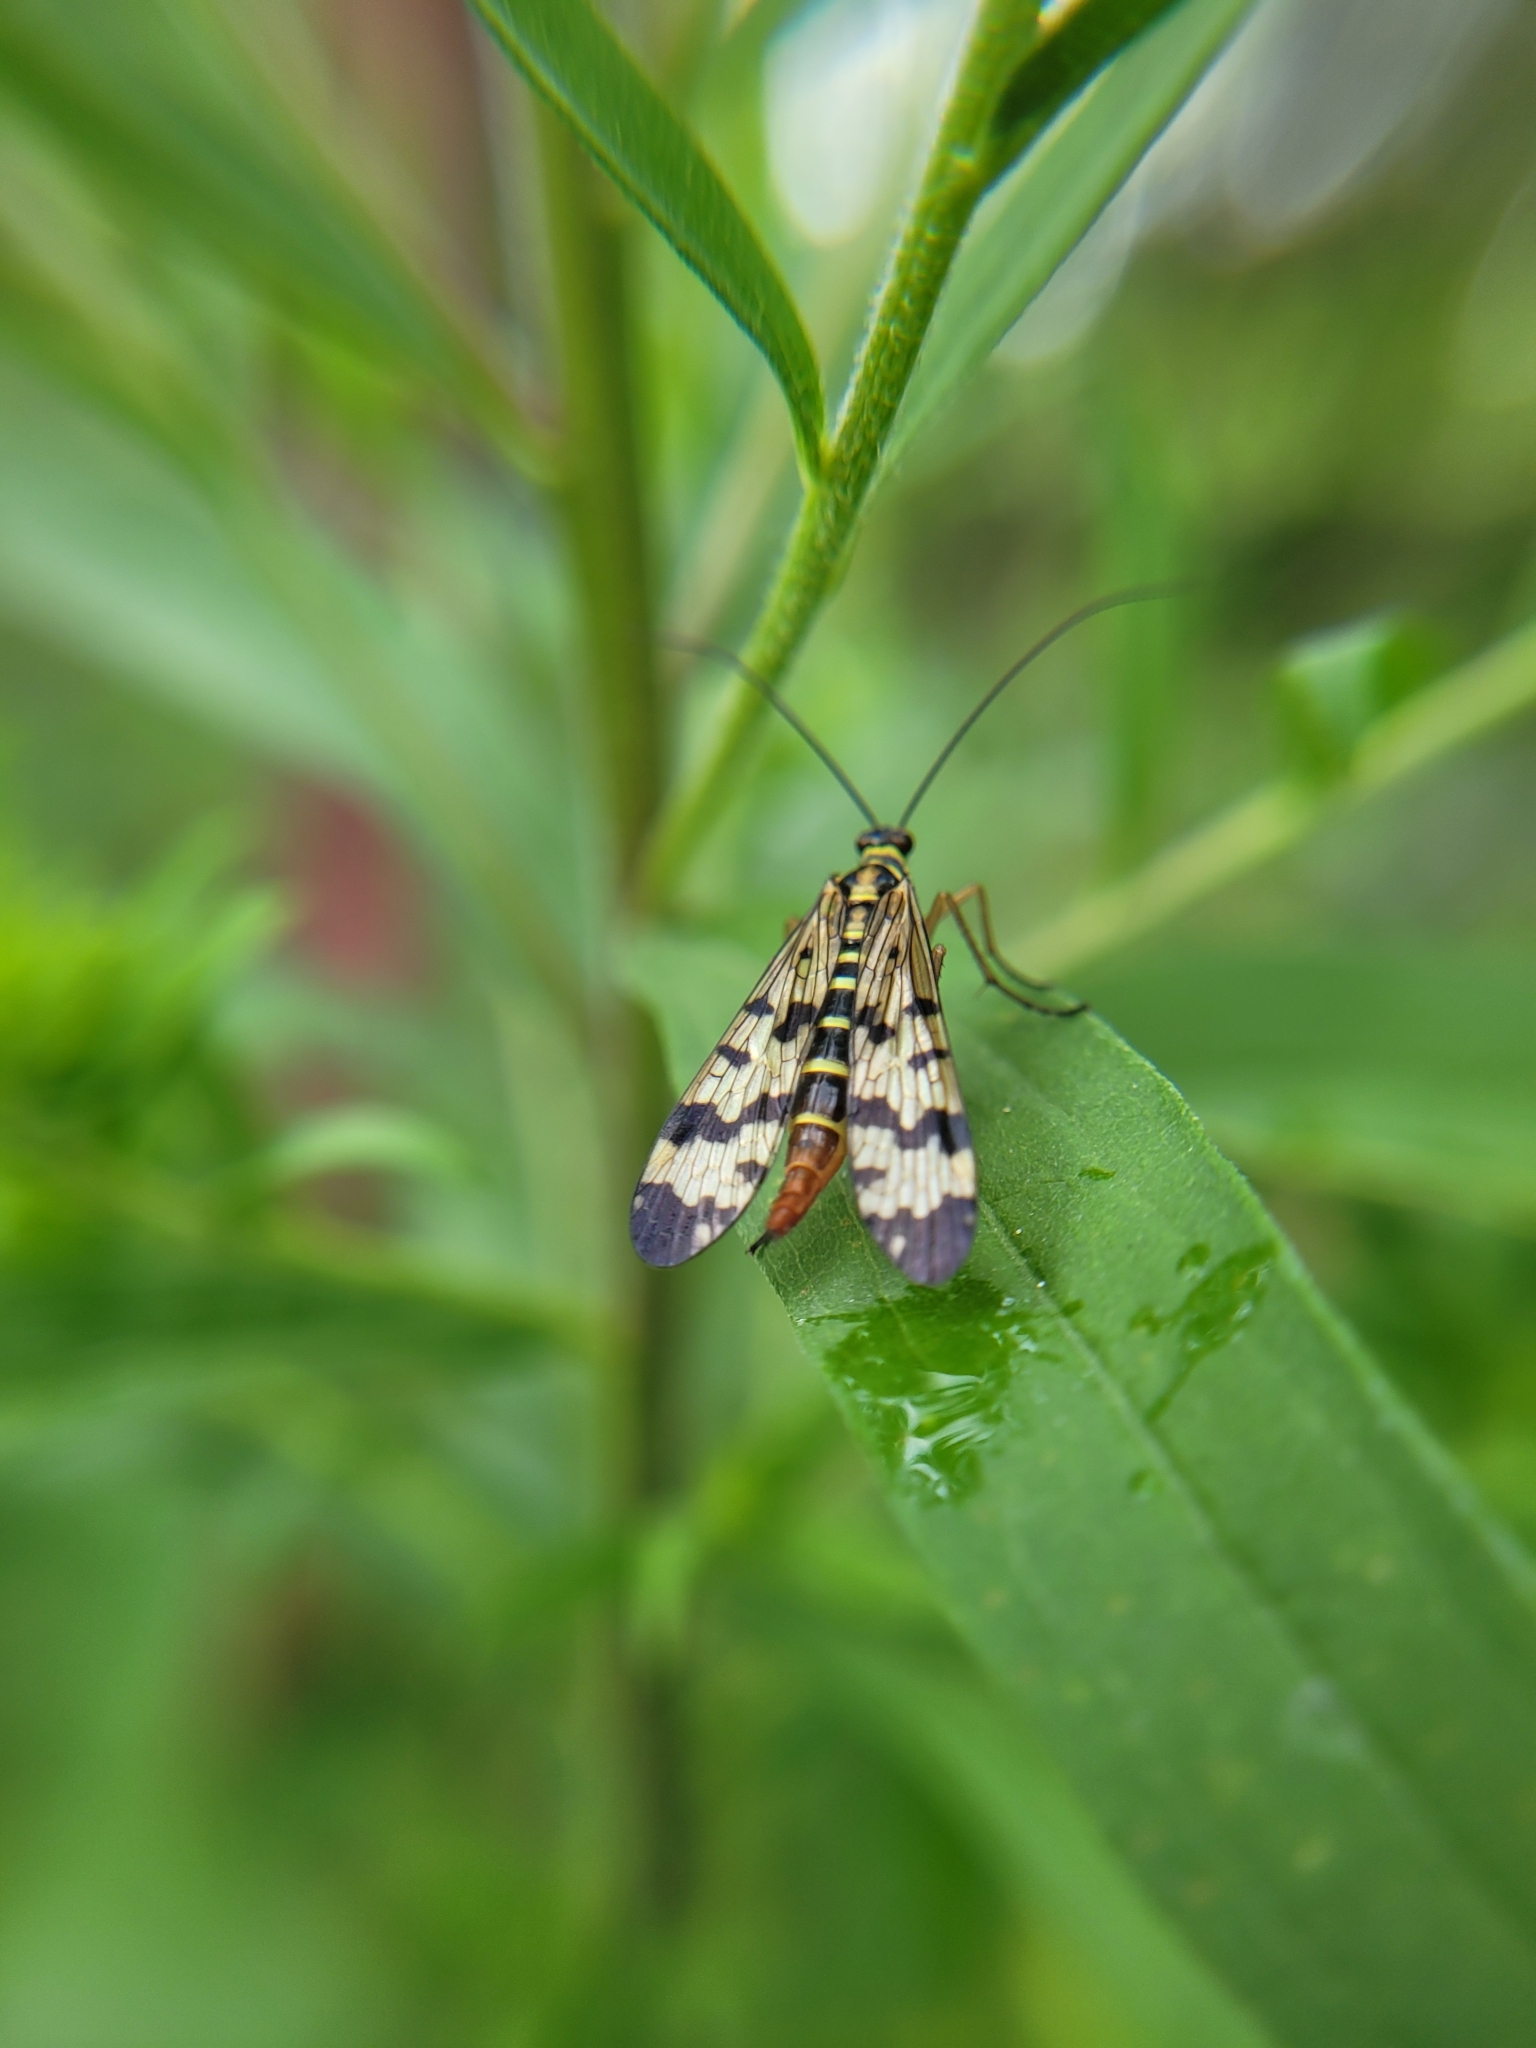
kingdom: Animalia
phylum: Arthropoda
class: Insecta
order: Mecoptera
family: Panorpidae
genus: Panorpa
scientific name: Panorpa communis
